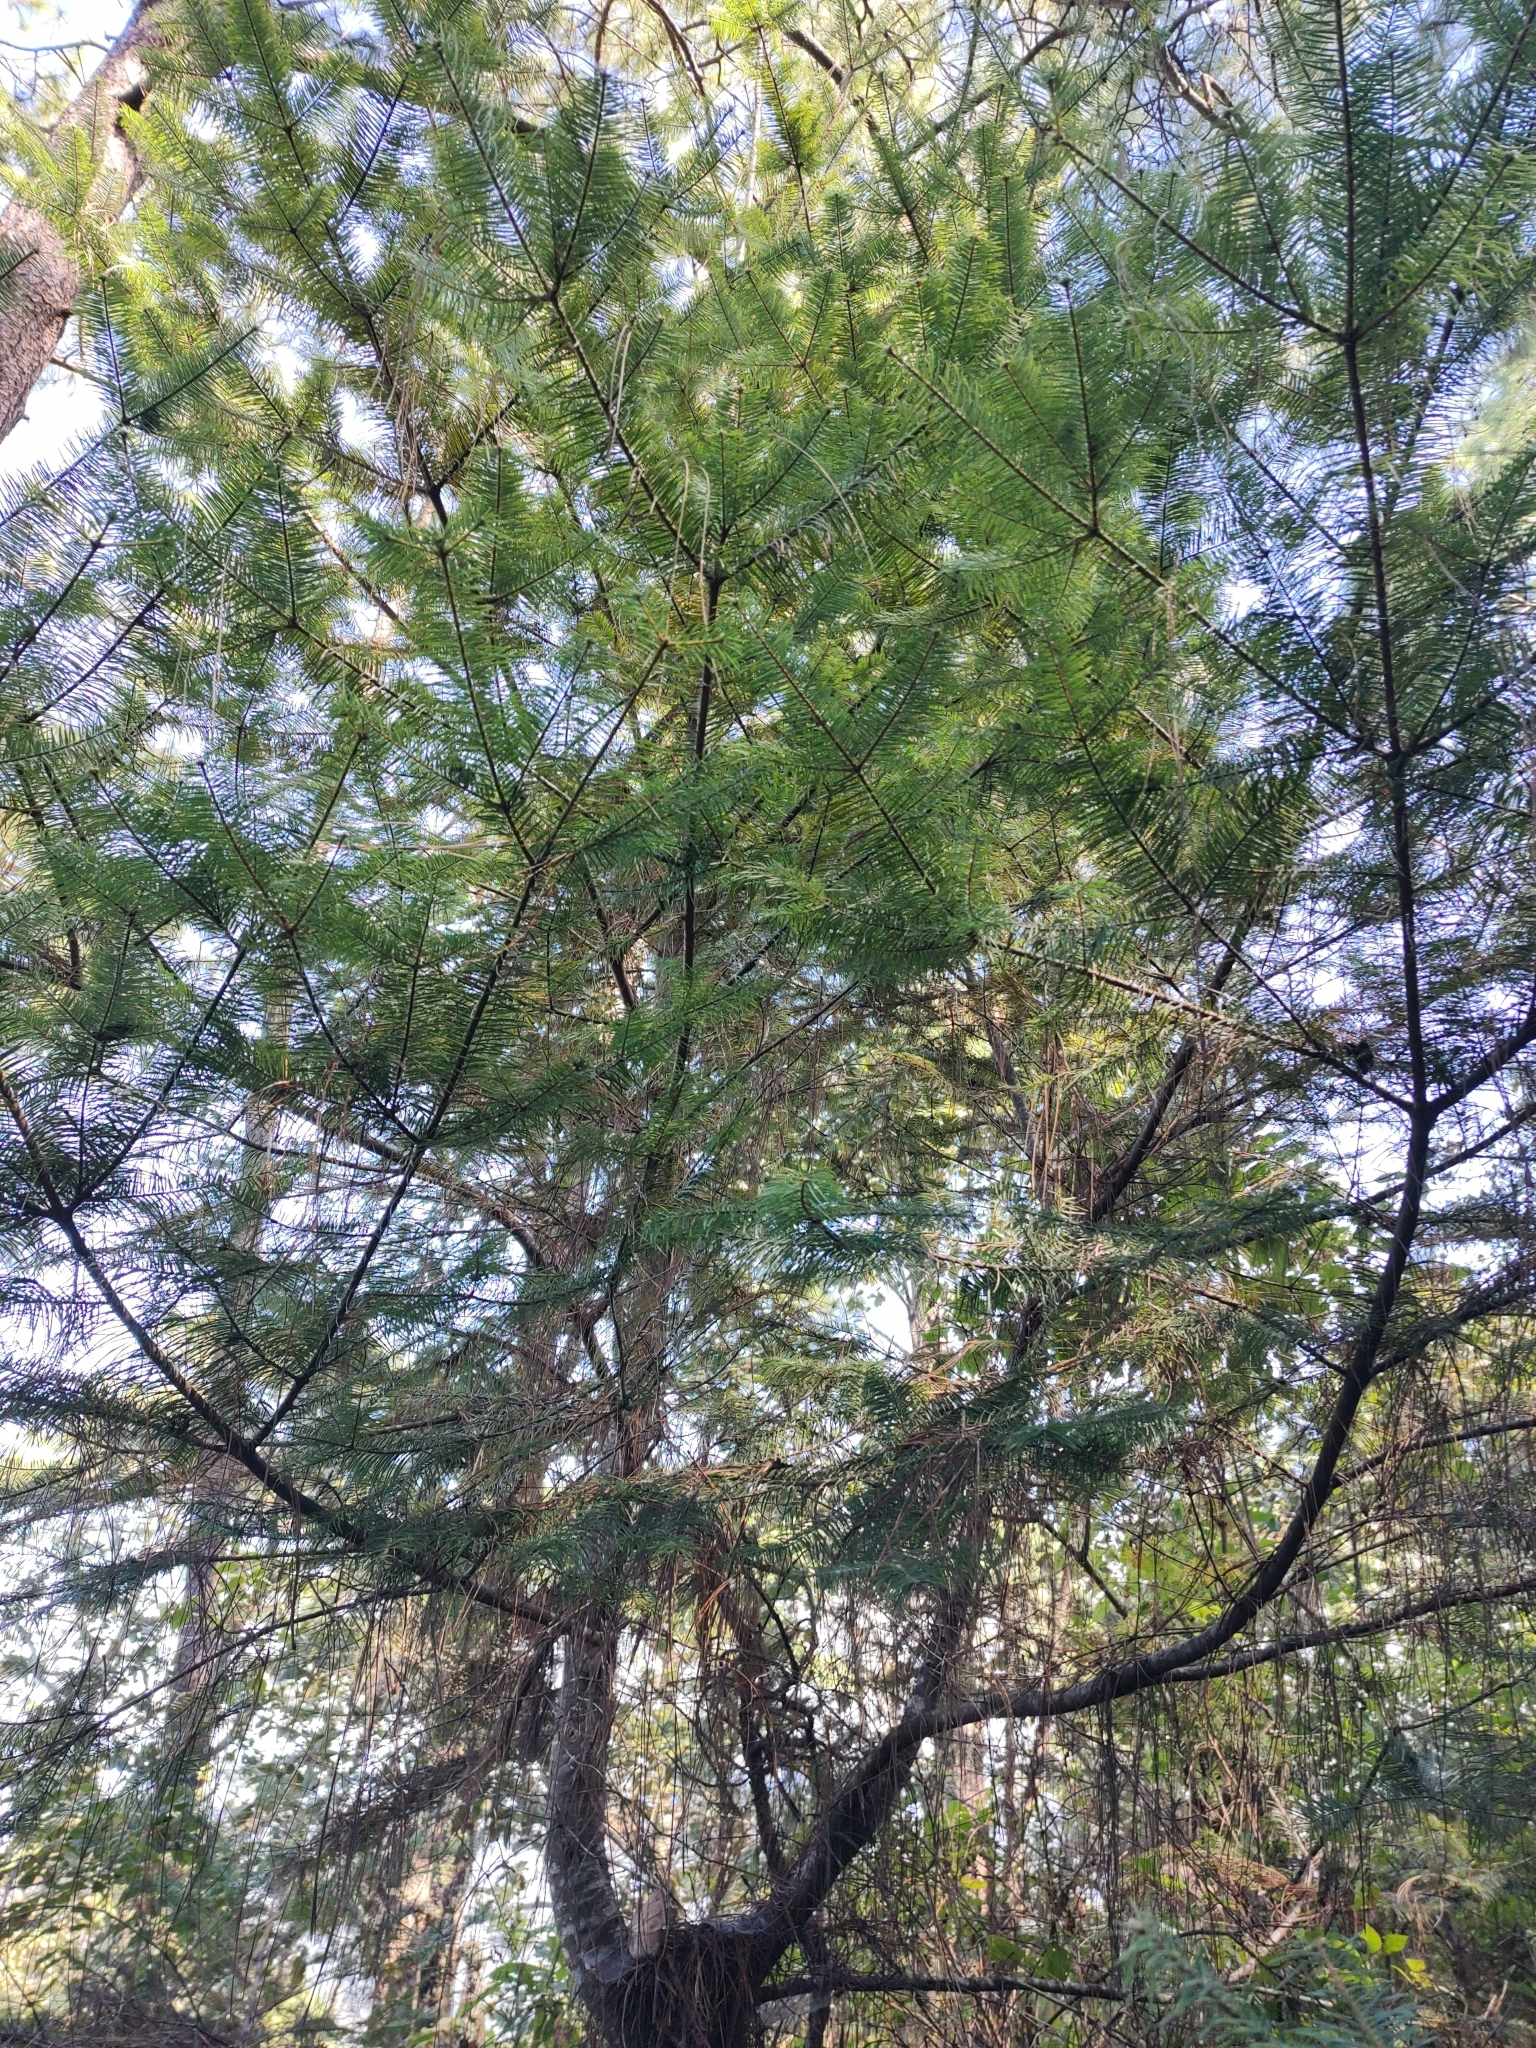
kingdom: Plantae
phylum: Tracheophyta
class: Pinopsida
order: Pinales
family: Pinaceae
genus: Abies
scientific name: Abies guatemalensis
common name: Guatemalan fir
